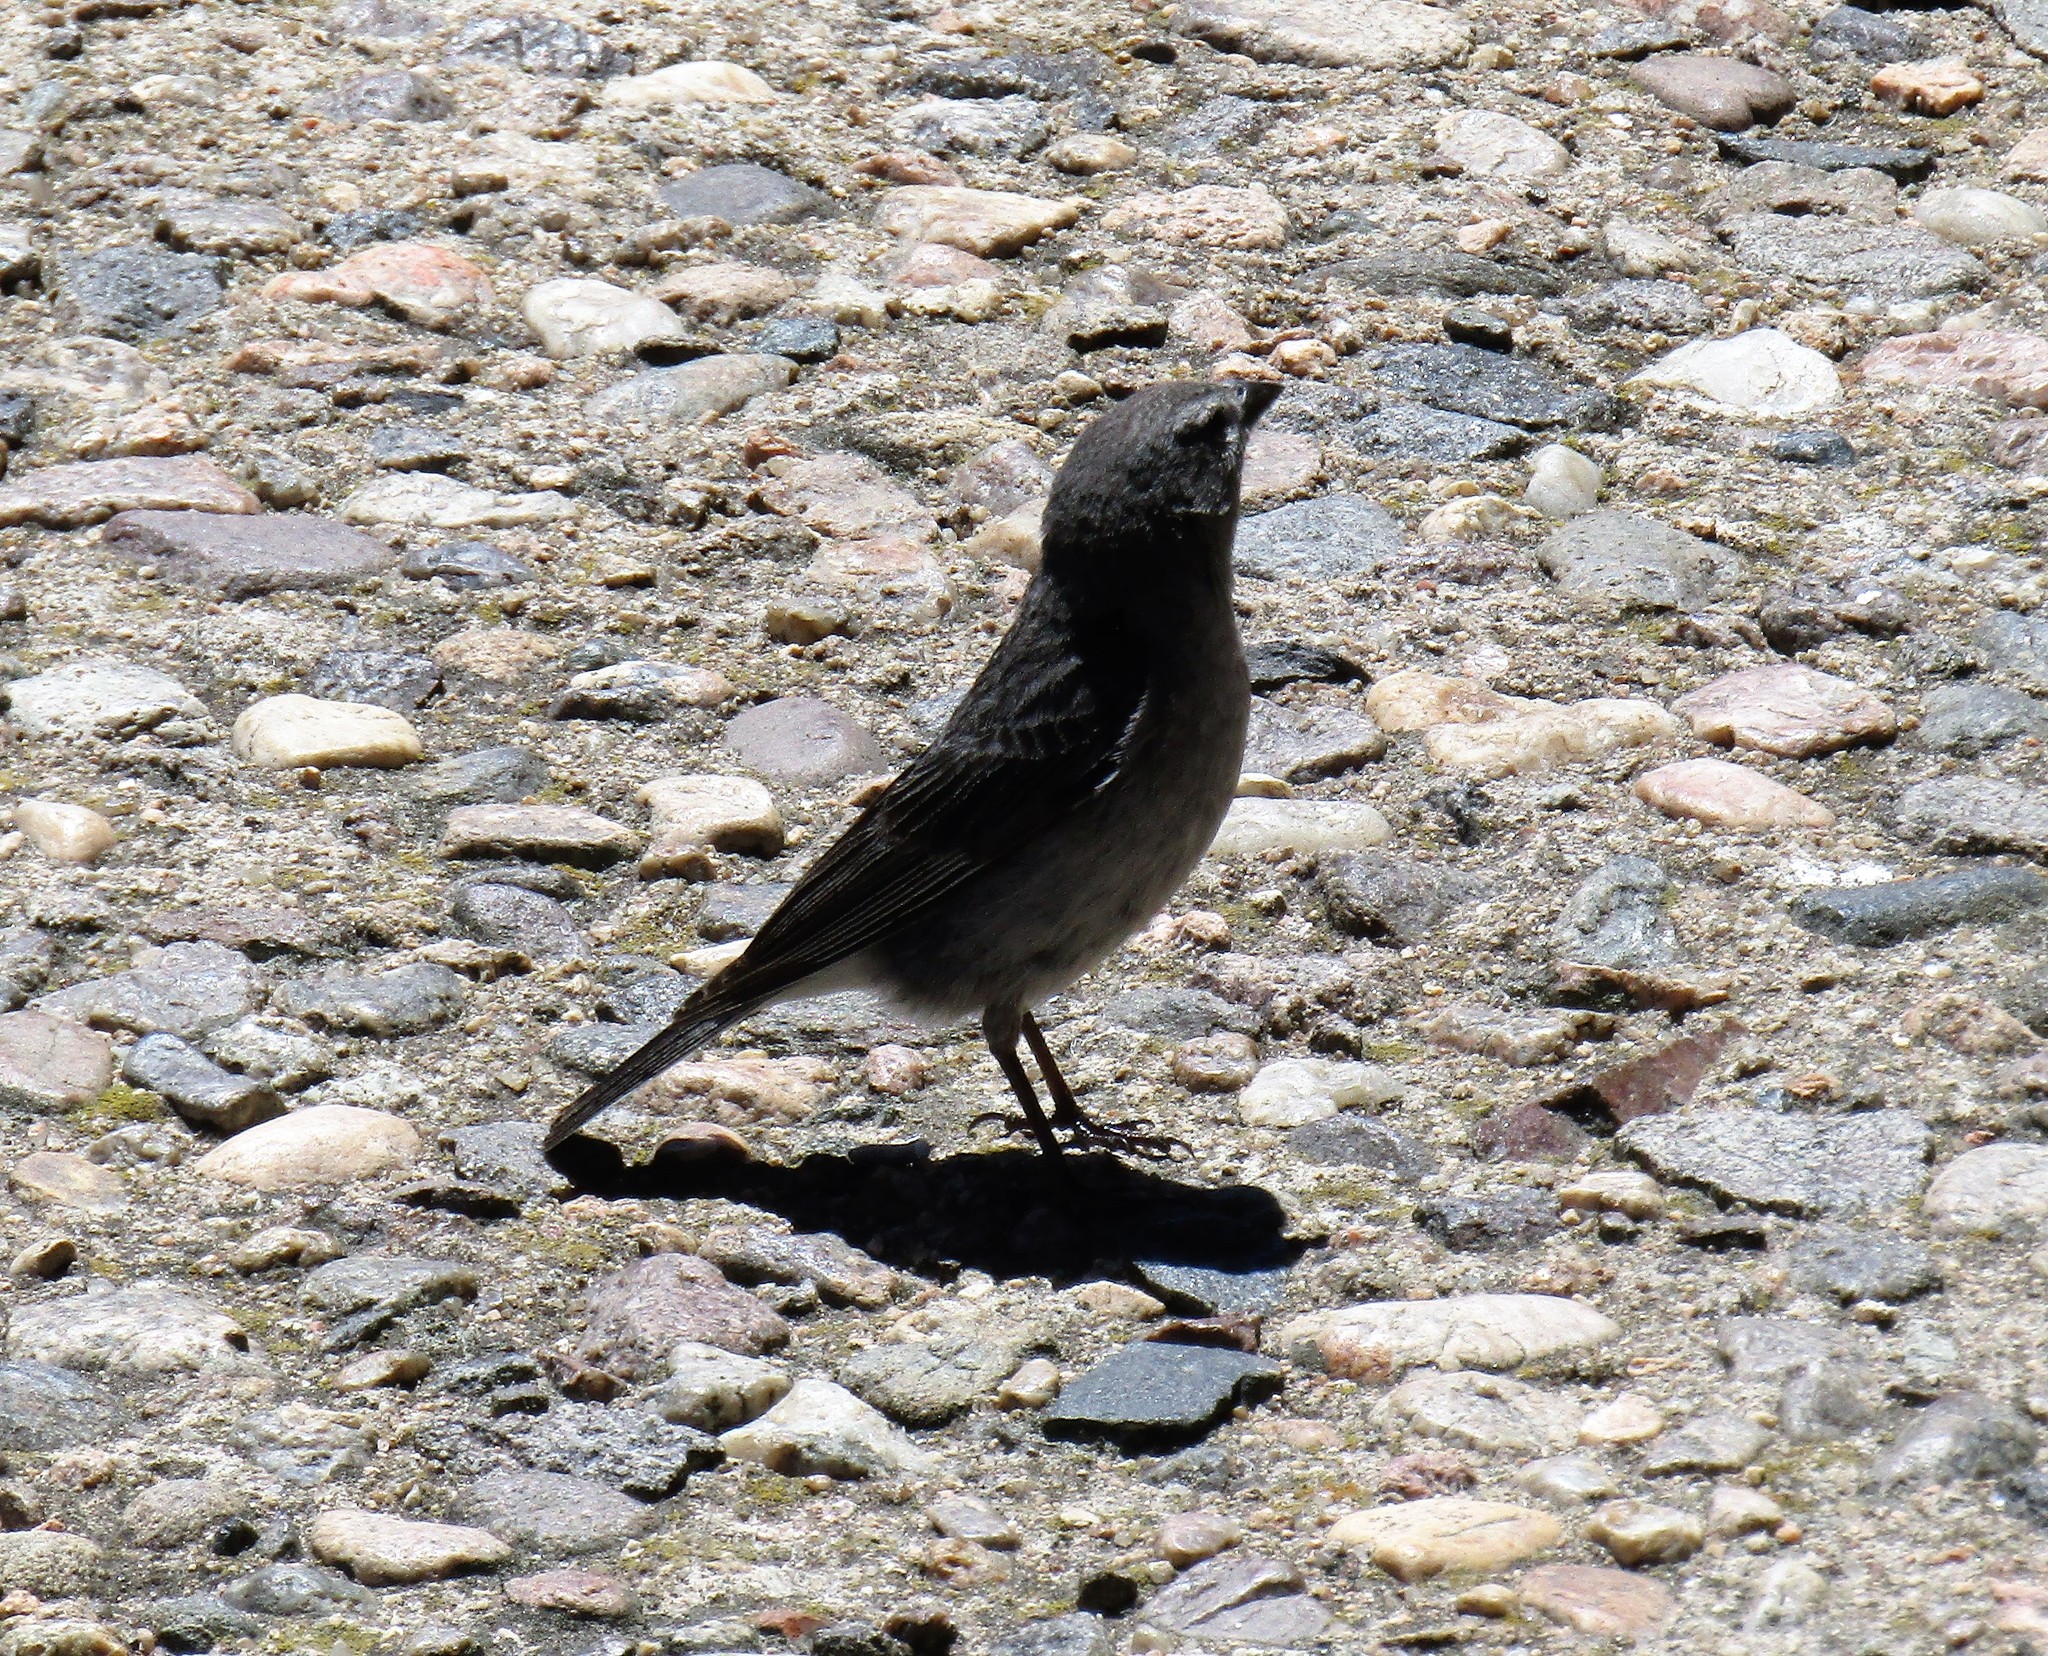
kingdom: Animalia
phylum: Chordata
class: Aves
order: Passeriformes
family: Thraupidae
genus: Geospizopsis
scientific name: Geospizopsis plebejus
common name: Ash-breasted sierra-finch
